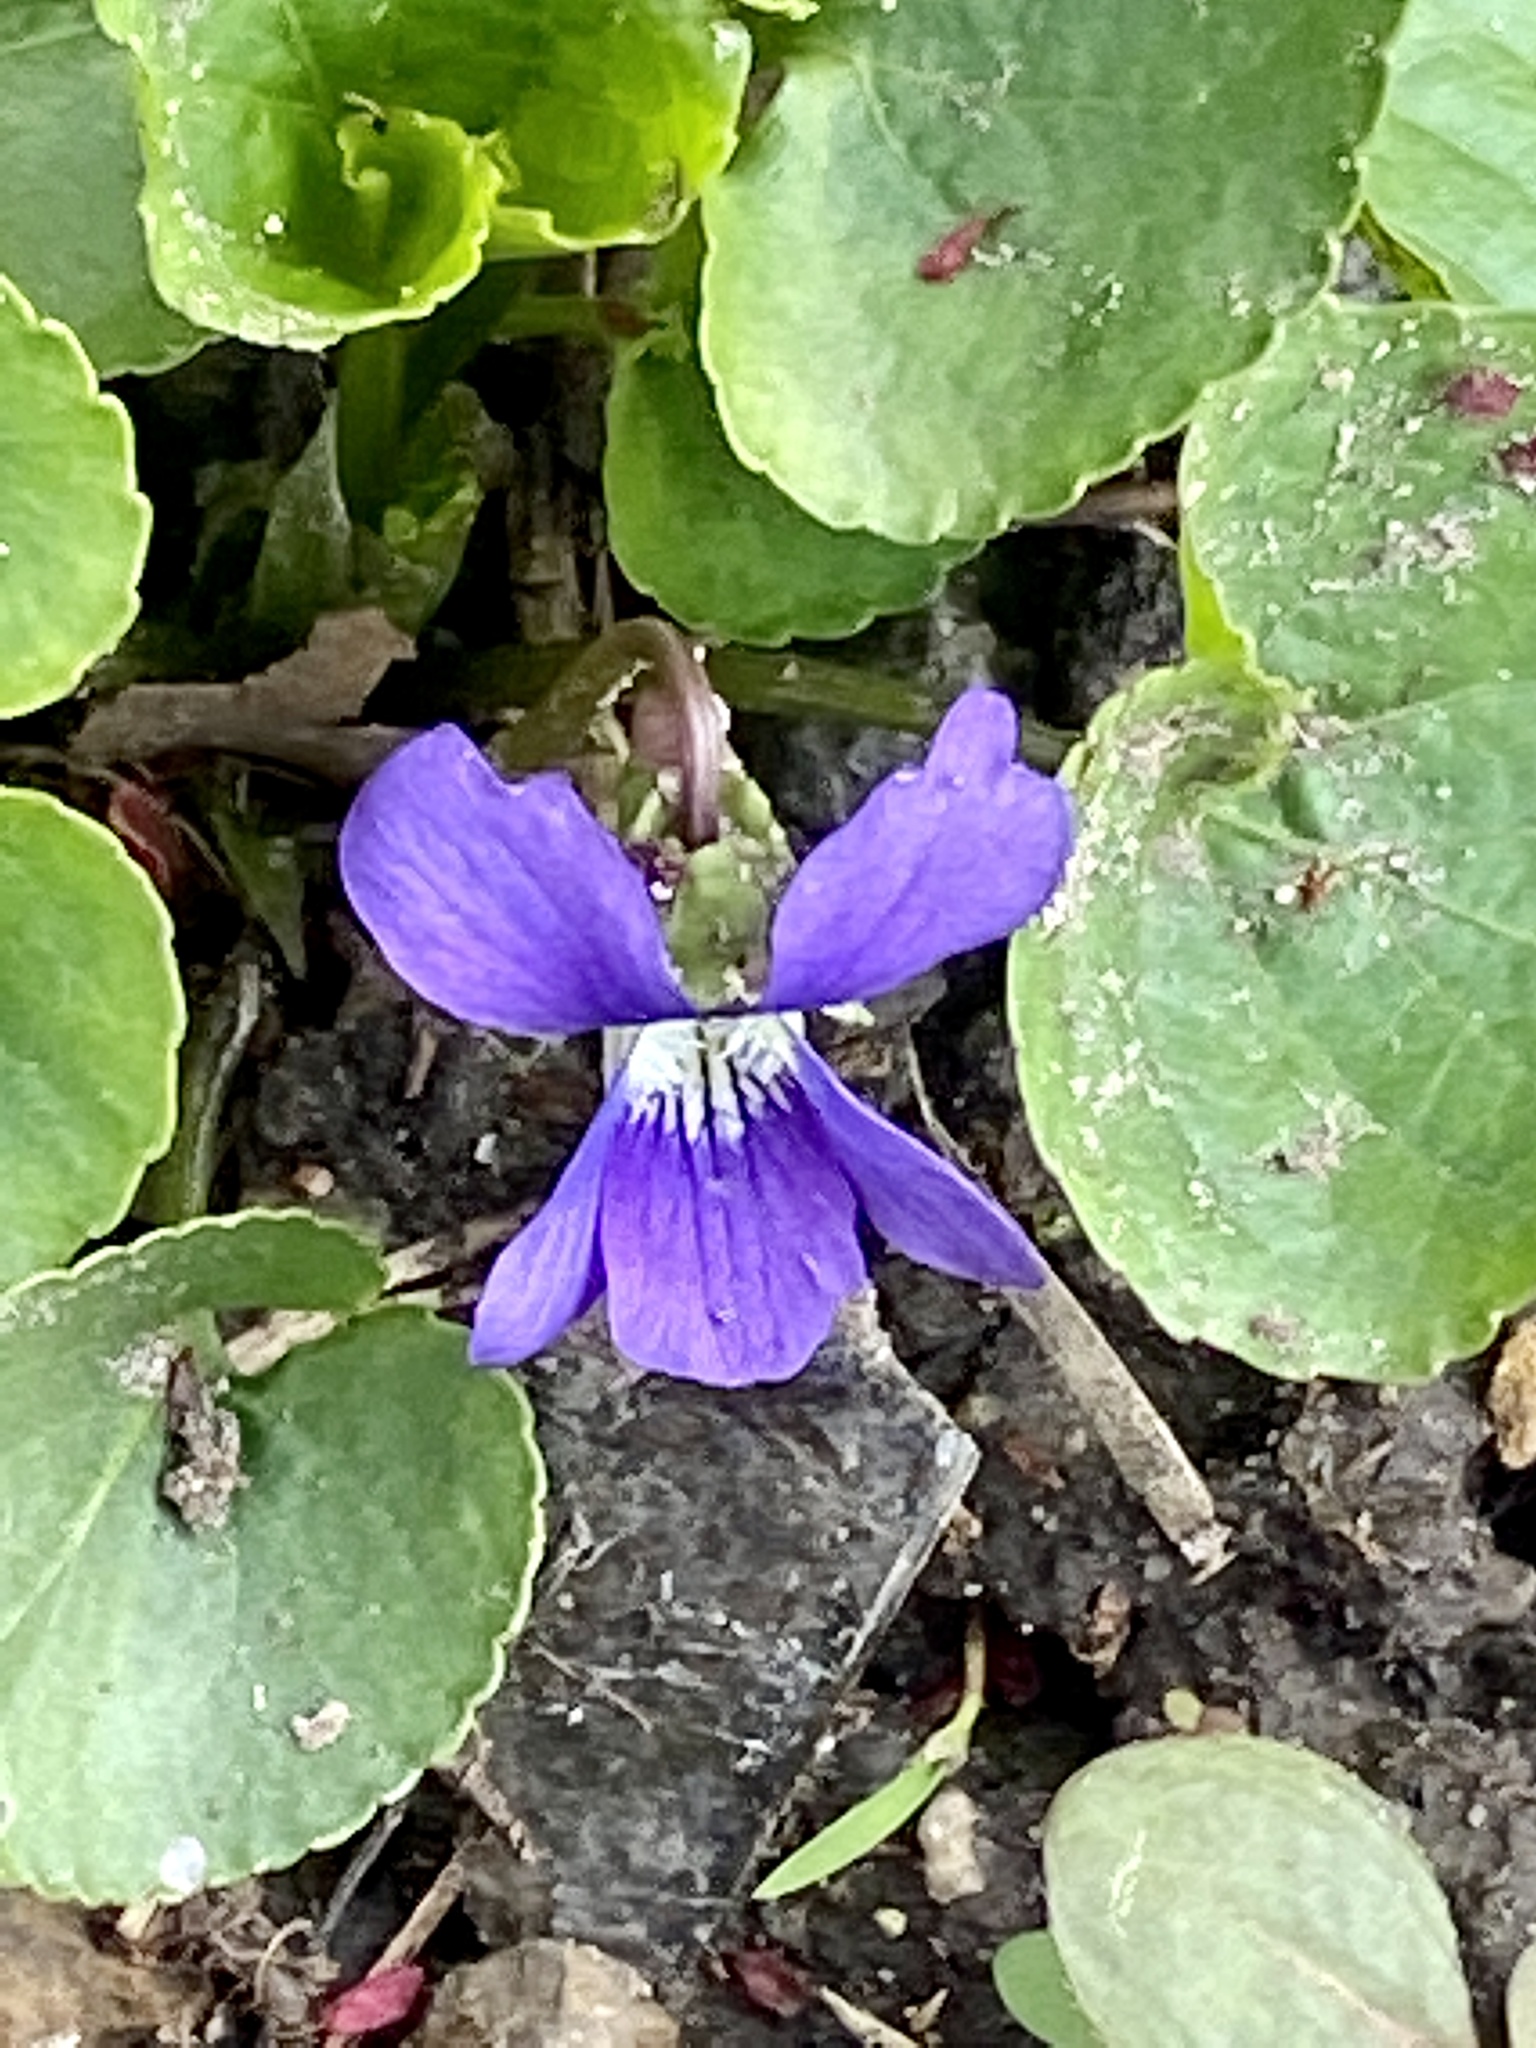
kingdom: Plantae
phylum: Tracheophyta
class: Magnoliopsida
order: Malpighiales
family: Violaceae
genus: Viola
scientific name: Viola sororia
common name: Dooryard violet
